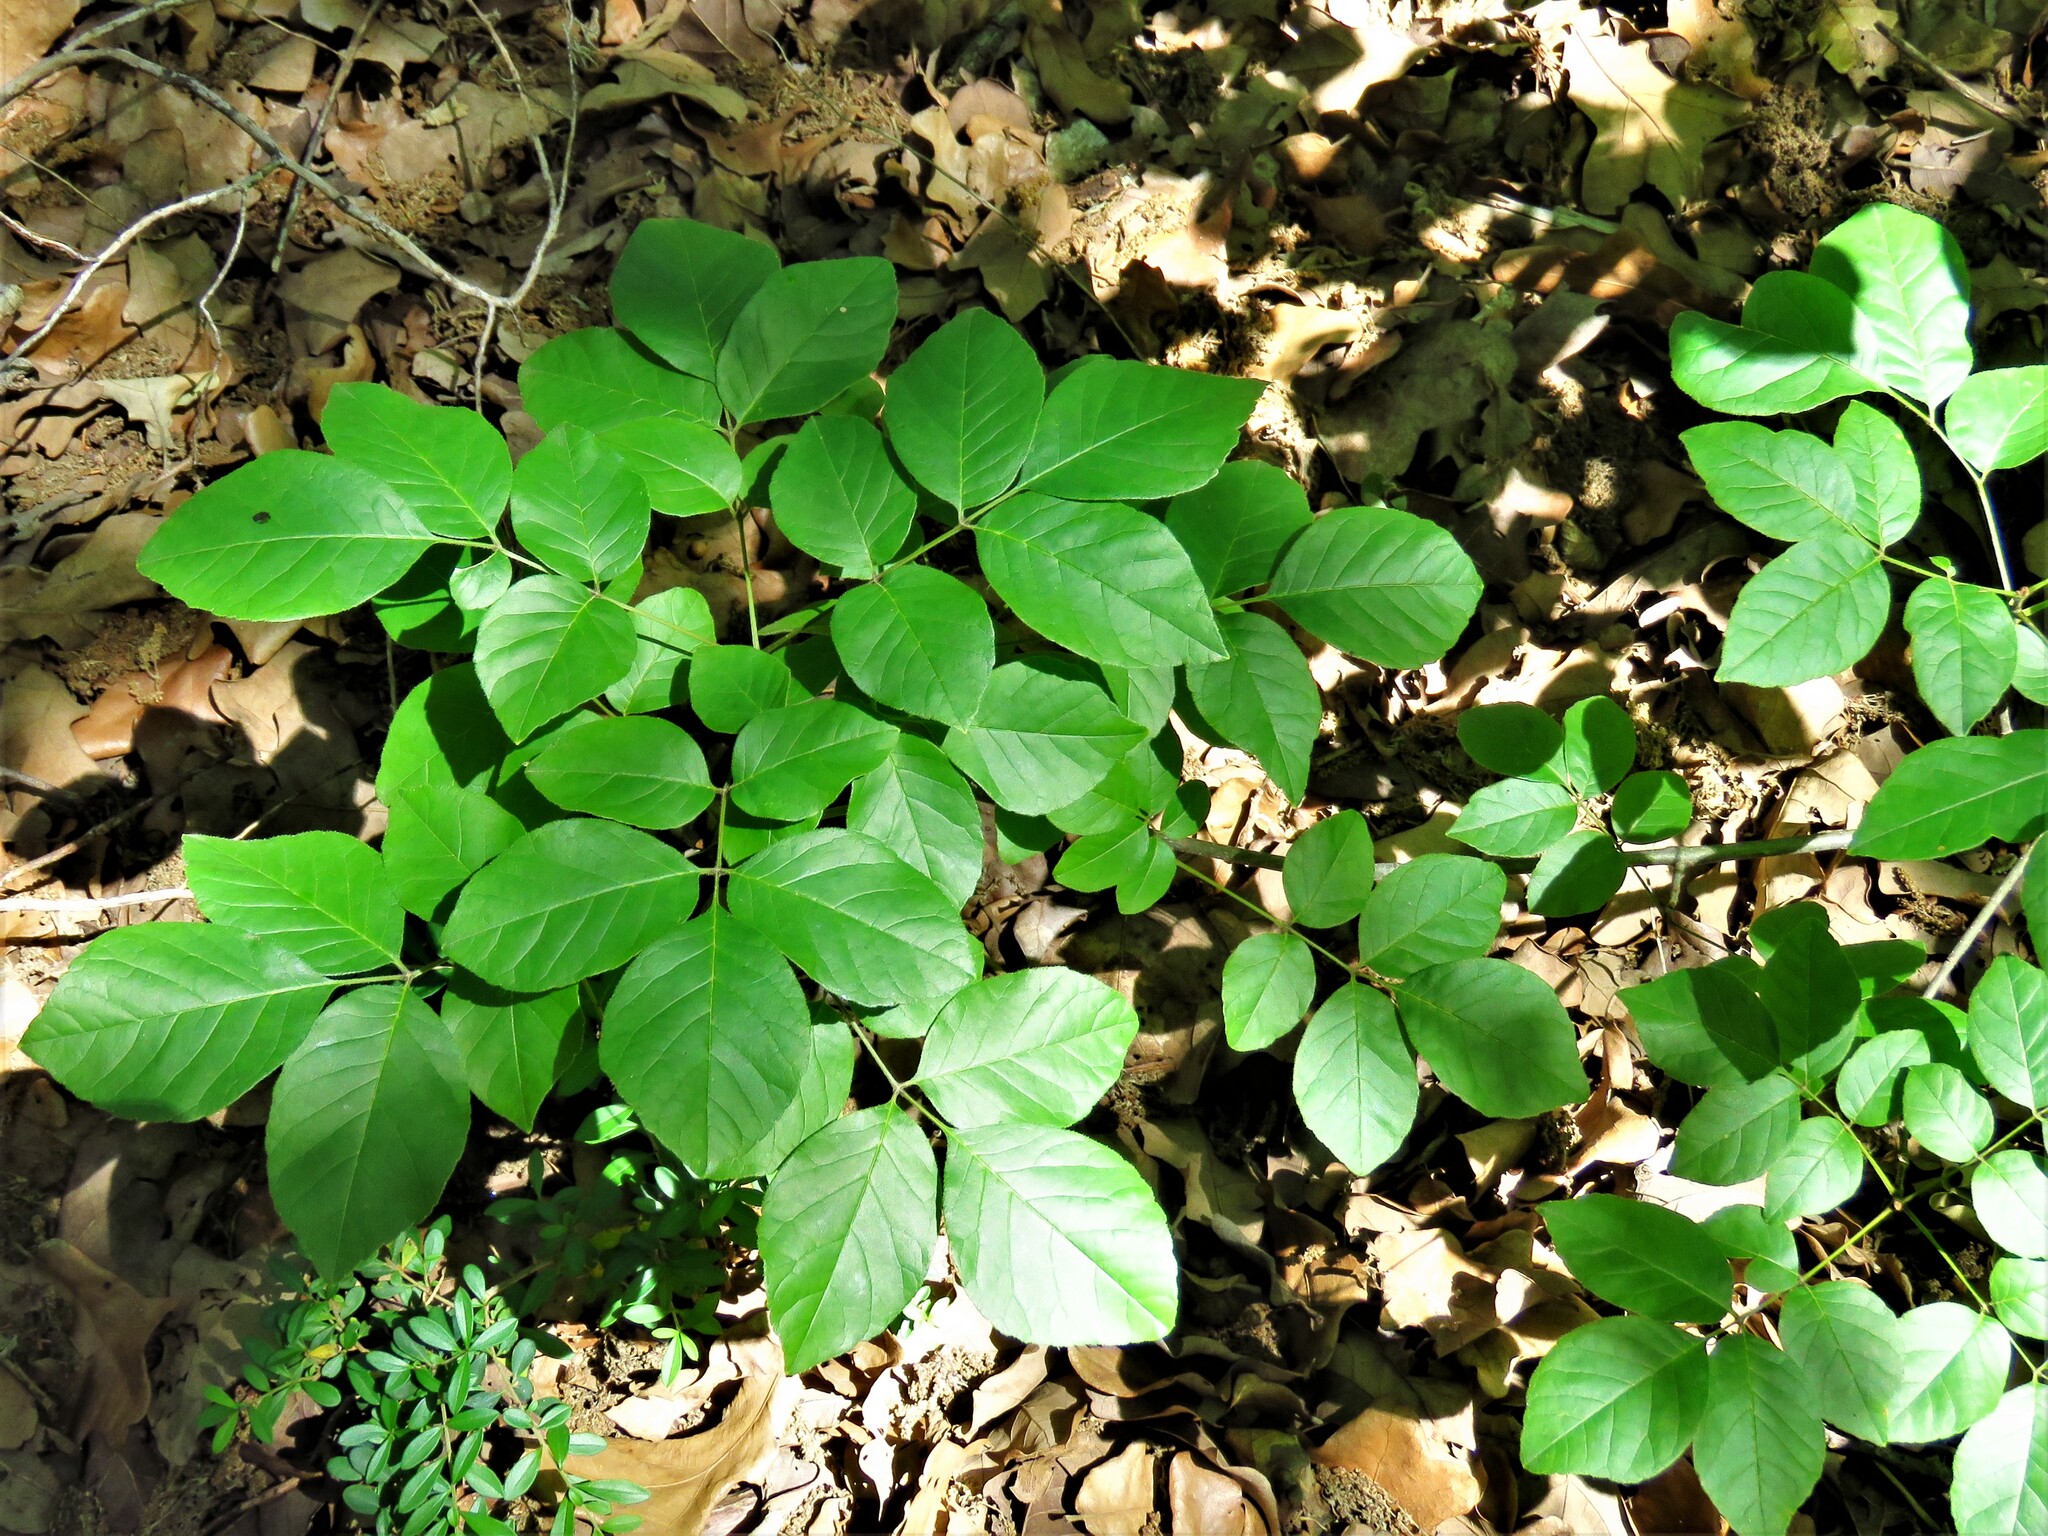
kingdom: Plantae
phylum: Tracheophyta
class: Magnoliopsida
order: Lamiales
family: Oleaceae
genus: Fraxinus
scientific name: Fraxinus albicans
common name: Texas ash
